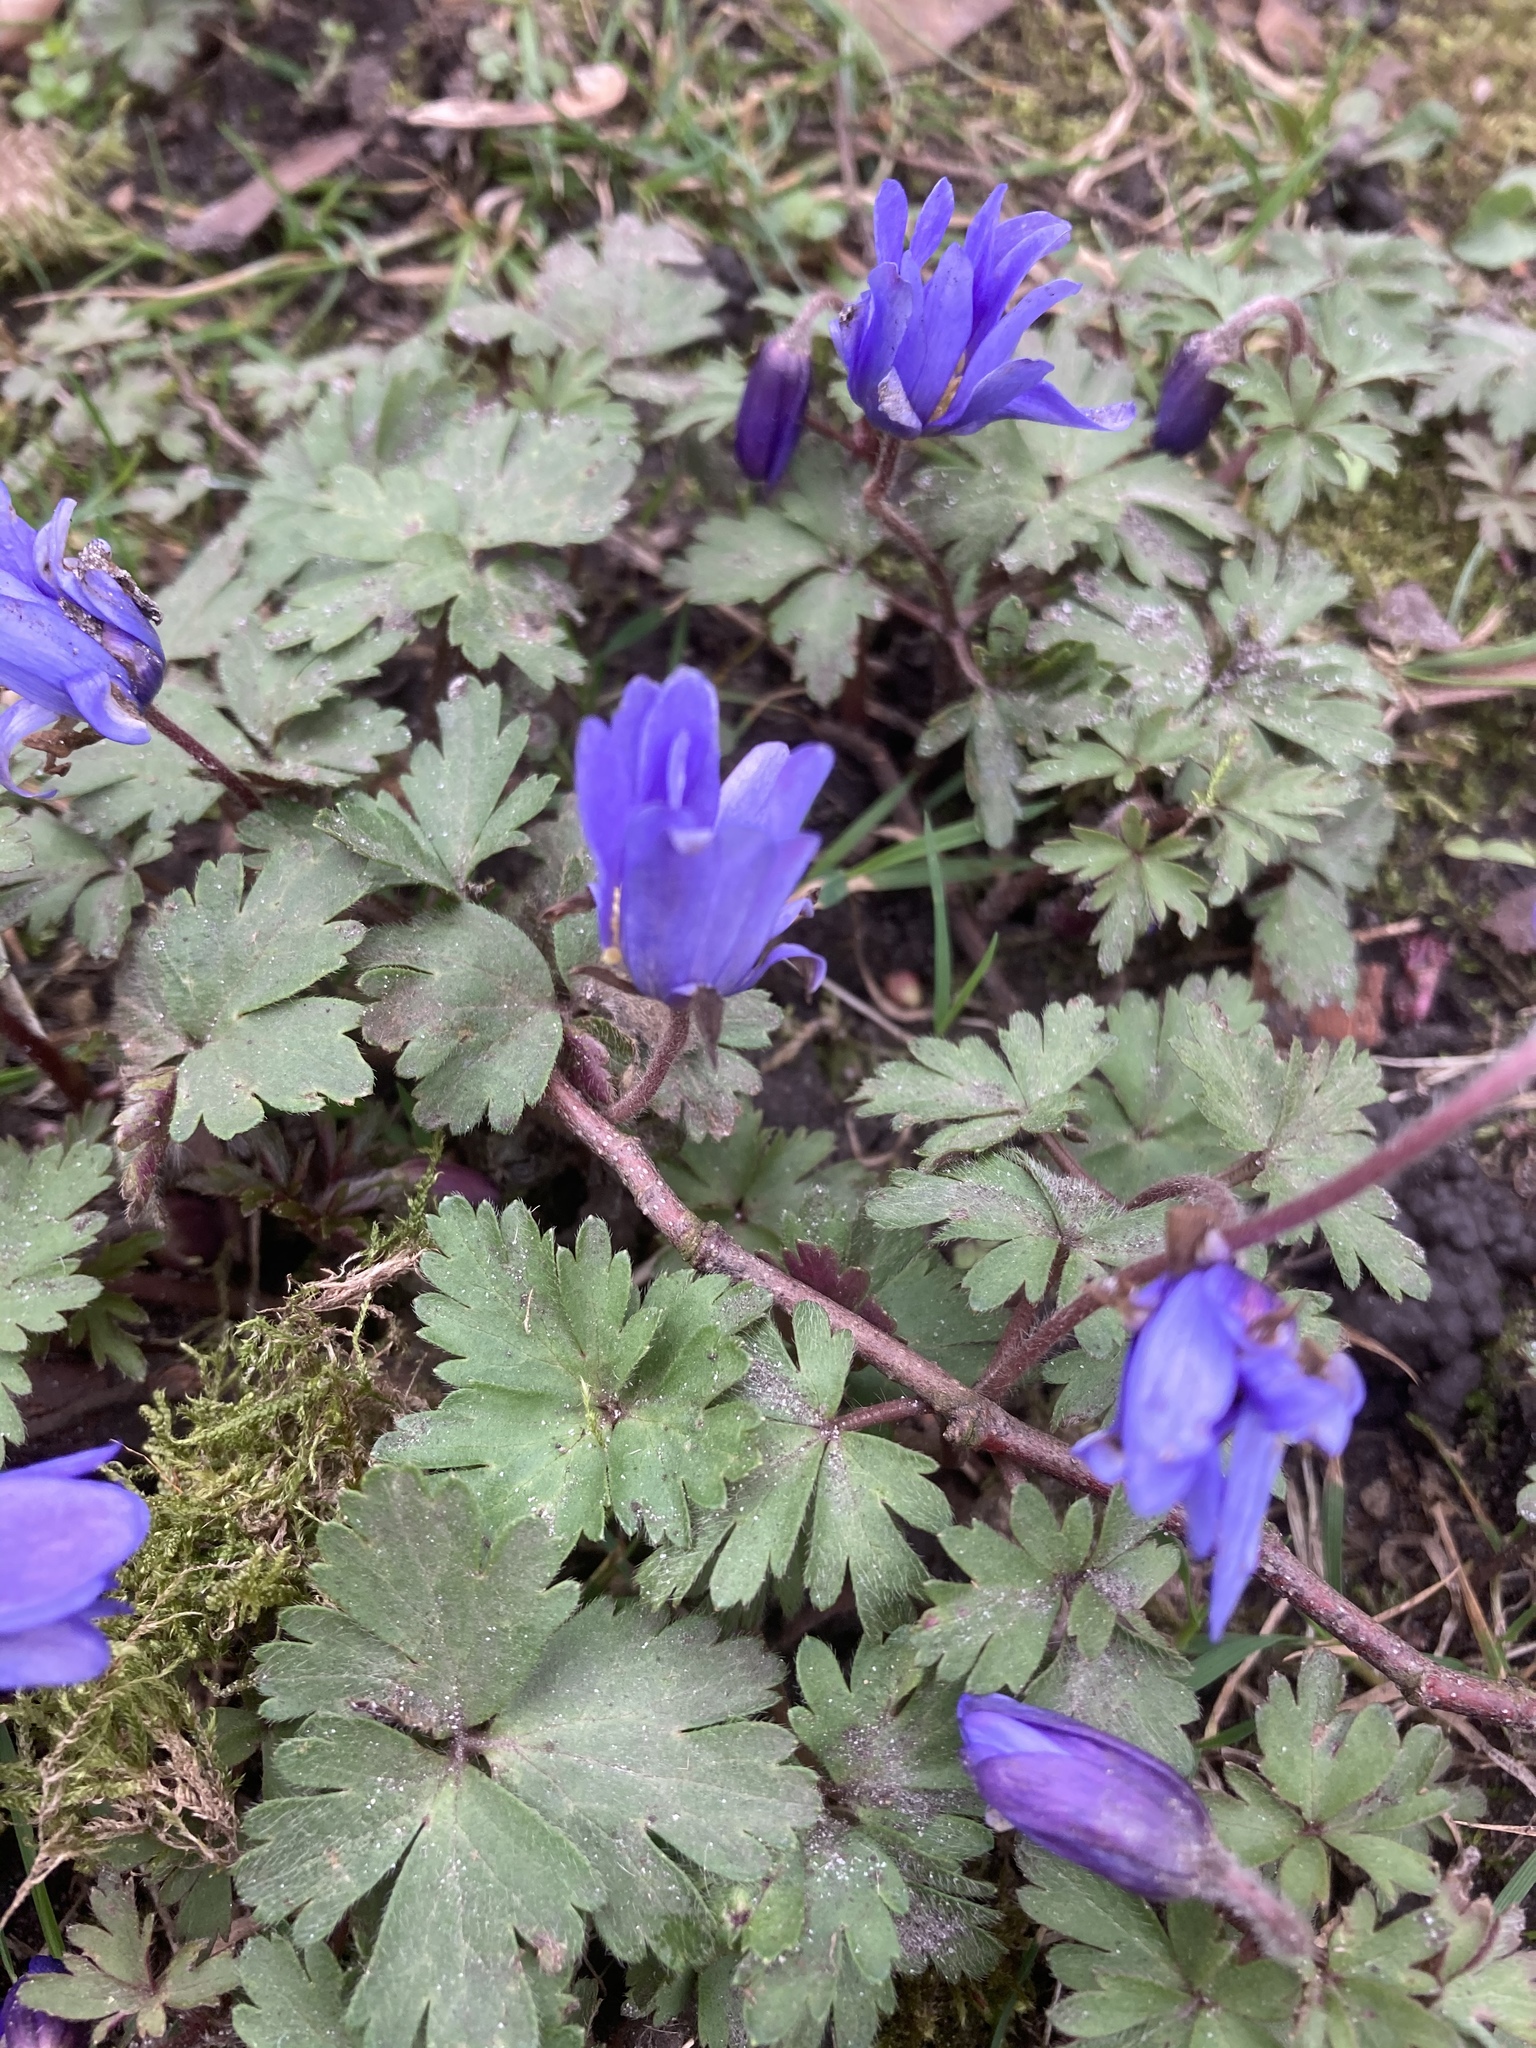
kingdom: Plantae
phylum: Tracheophyta
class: Magnoliopsida
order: Ranunculales
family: Ranunculaceae
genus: Anemone
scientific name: Anemone blanda
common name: Balkan anemone
